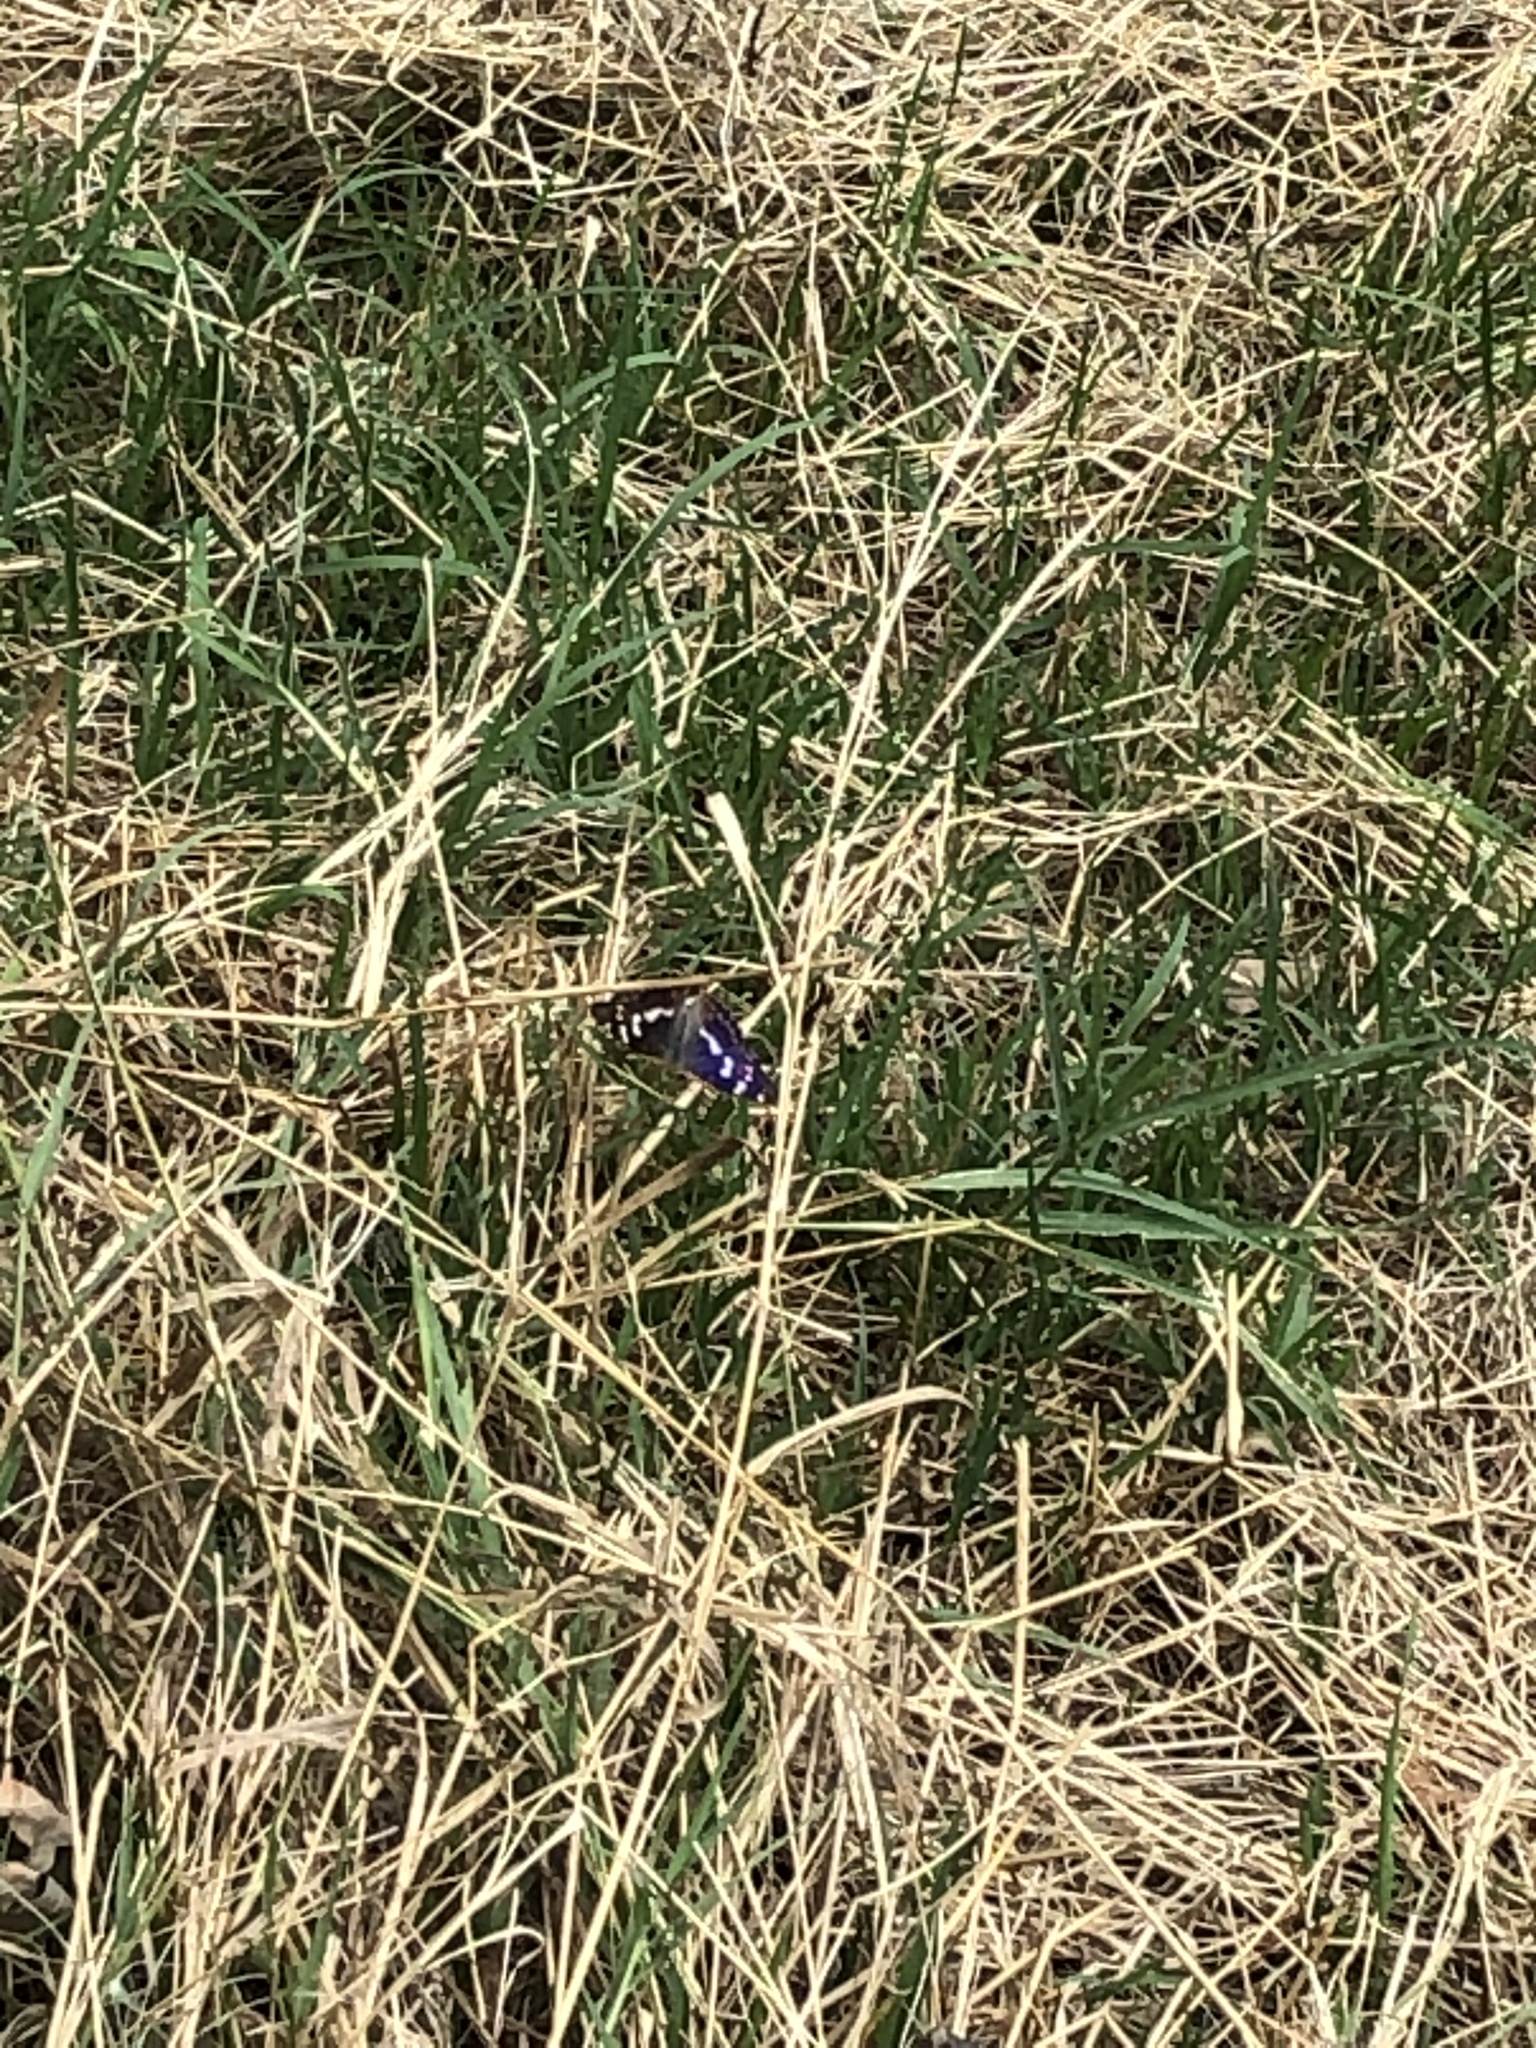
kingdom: Animalia
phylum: Arthropoda
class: Insecta
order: Lepidoptera
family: Nymphalidae
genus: Apatura
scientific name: Apatura iris
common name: Purple emperor
